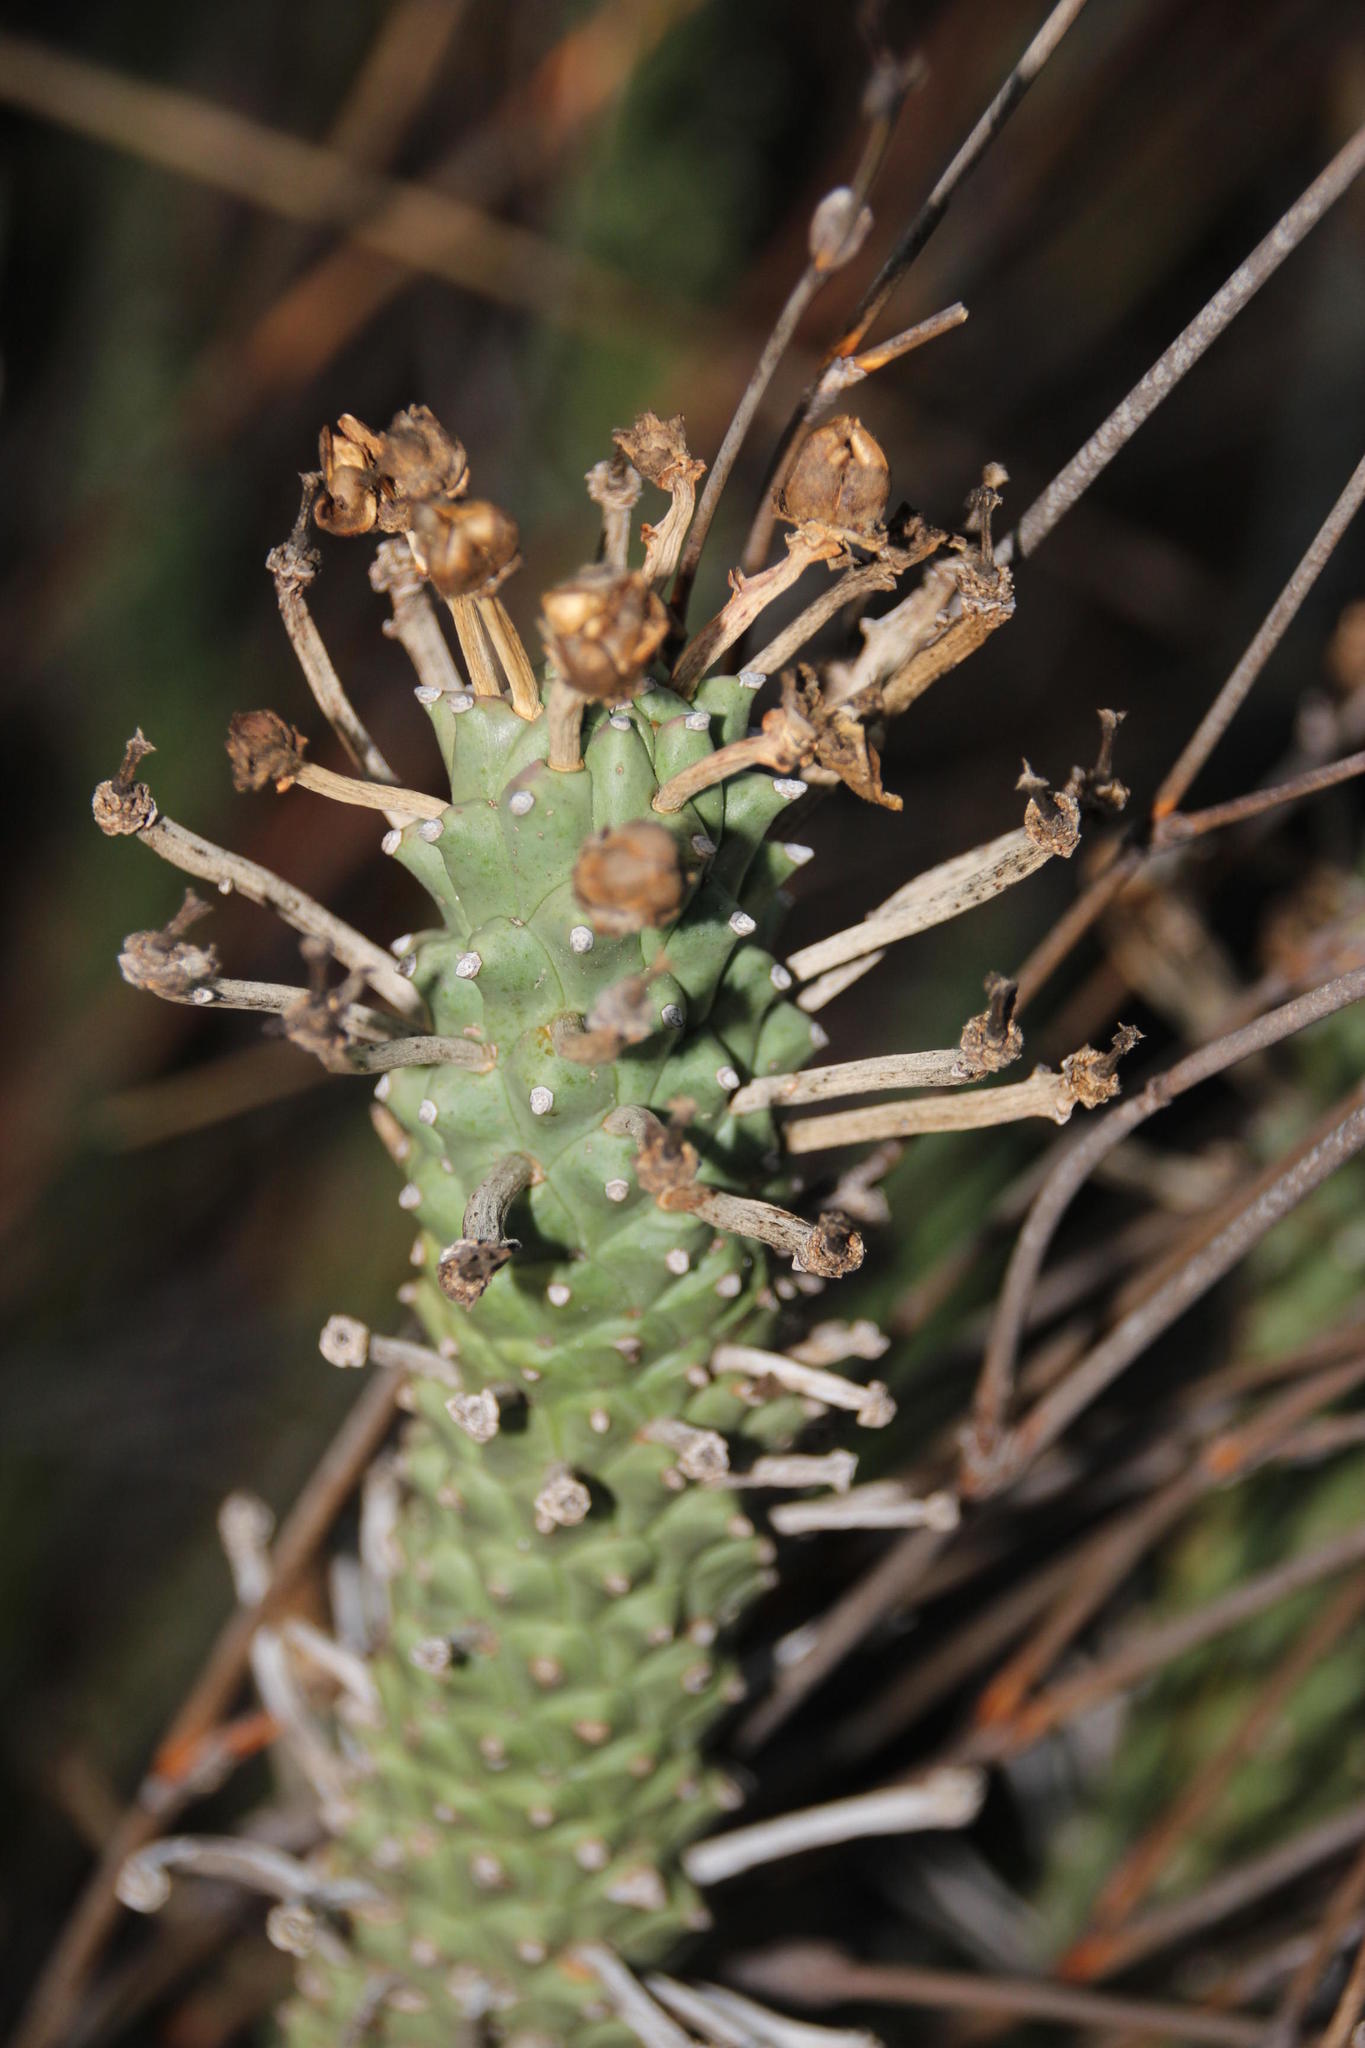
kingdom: Plantae
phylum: Tracheophyta
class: Magnoliopsida
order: Malpighiales
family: Euphorbiaceae
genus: Euphorbia
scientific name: Euphorbia caput-medusae
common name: Medusa's-head
